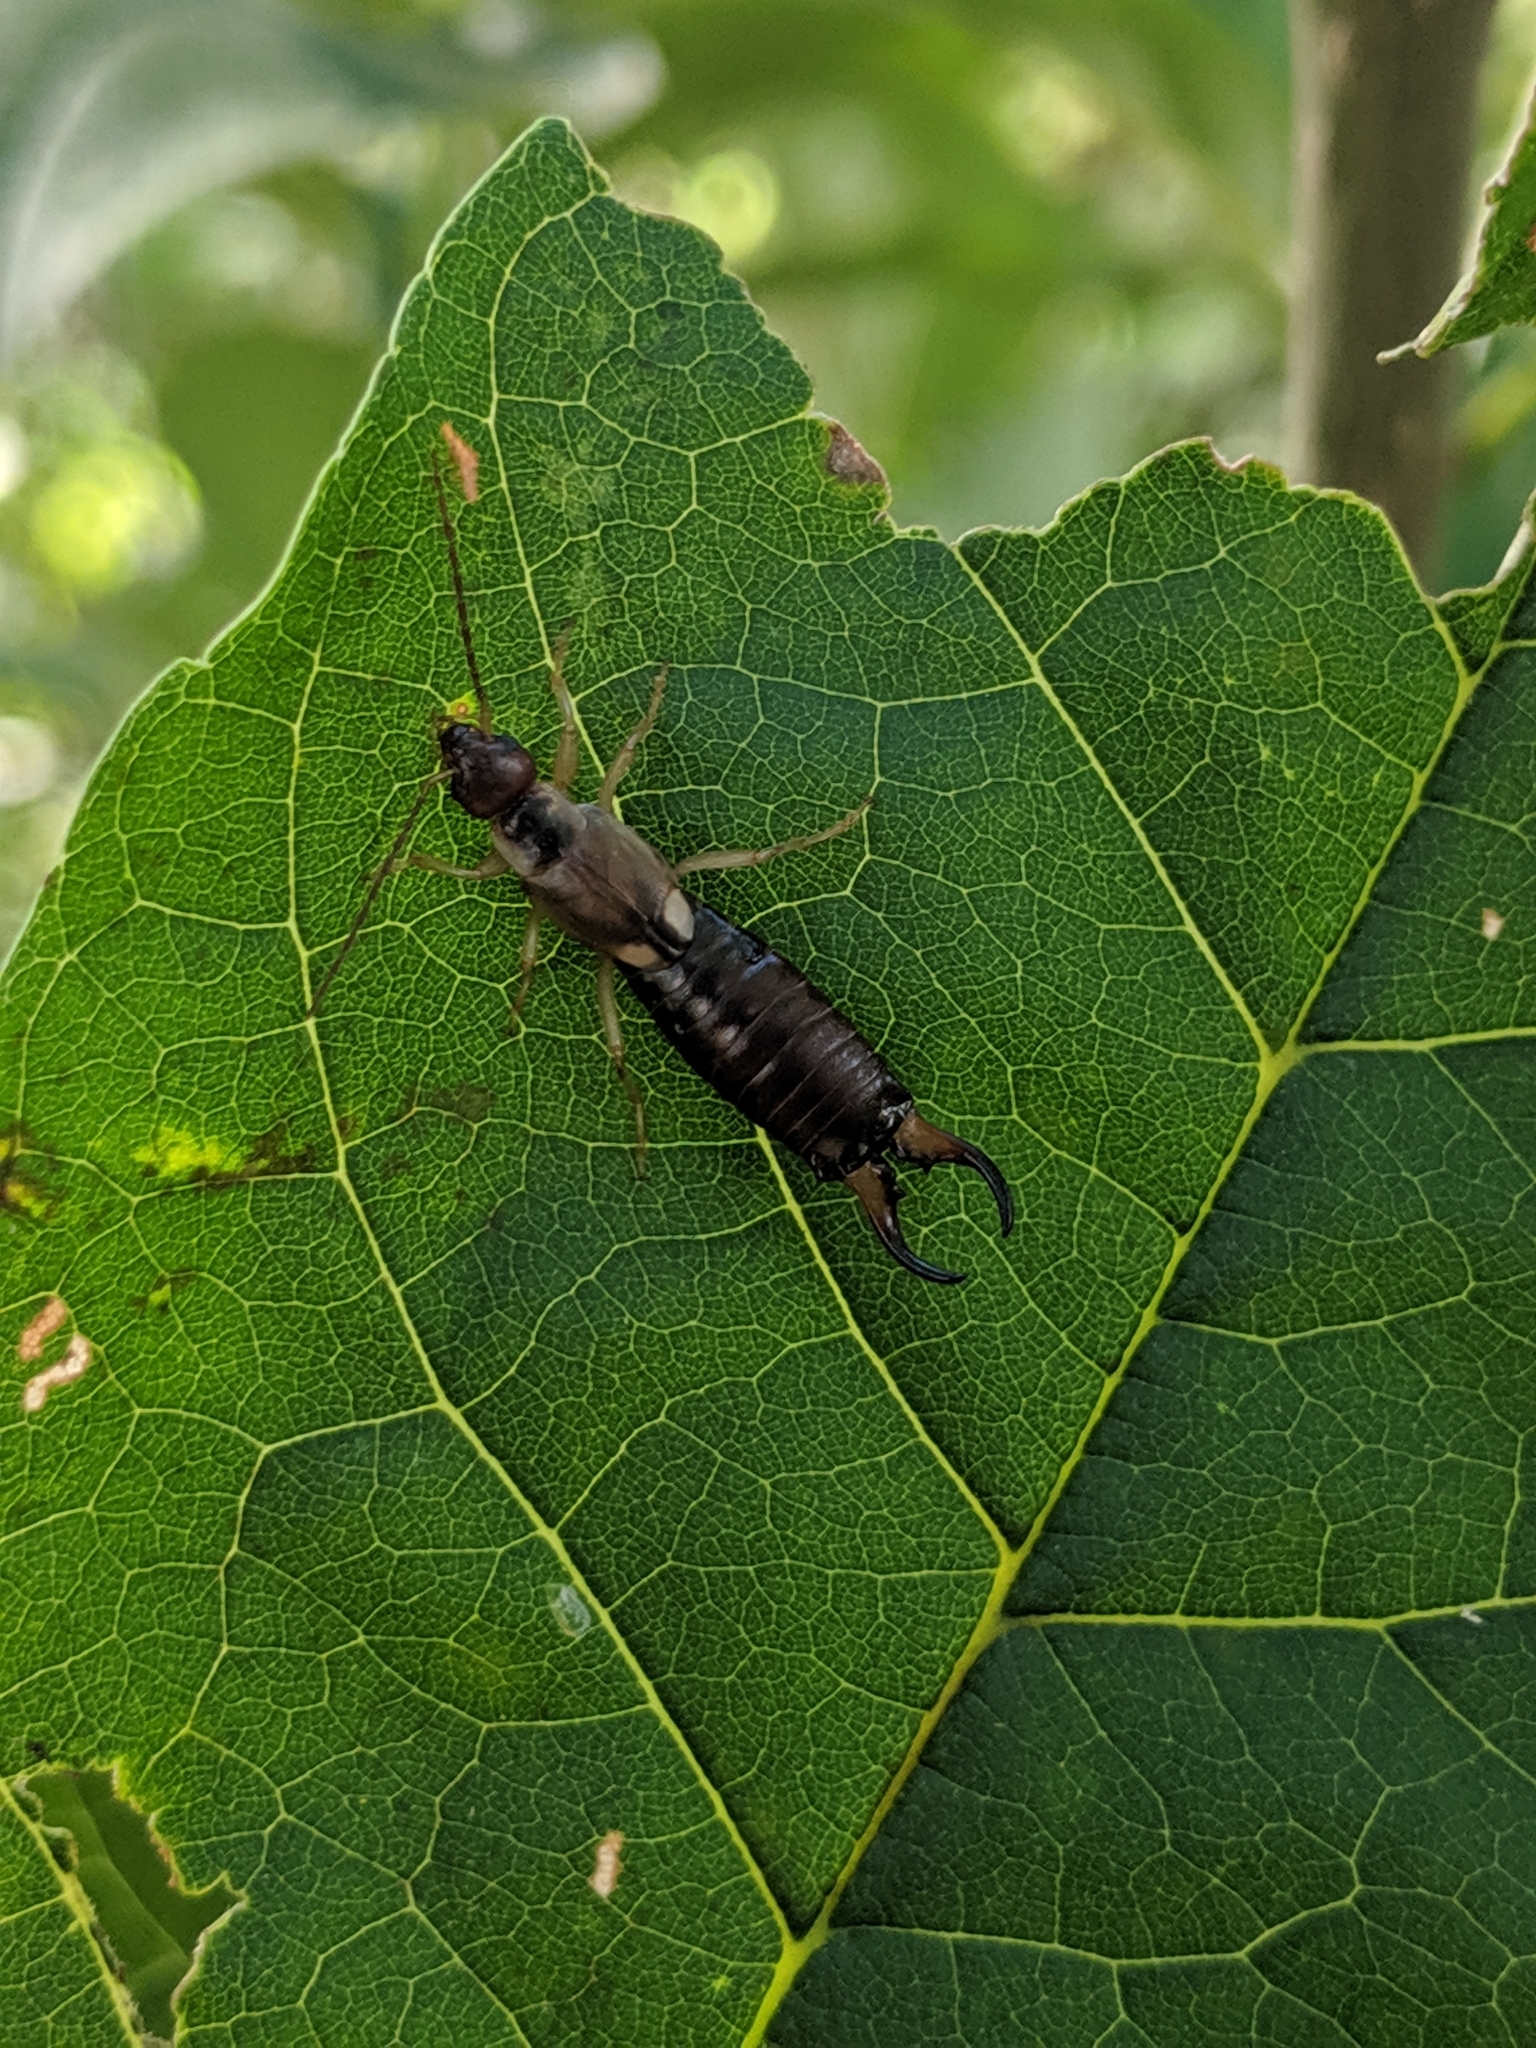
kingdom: Animalia
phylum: Arthropoda
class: Insecta
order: Dermaptera
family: Forficulidae
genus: Forficula
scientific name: Forficula
